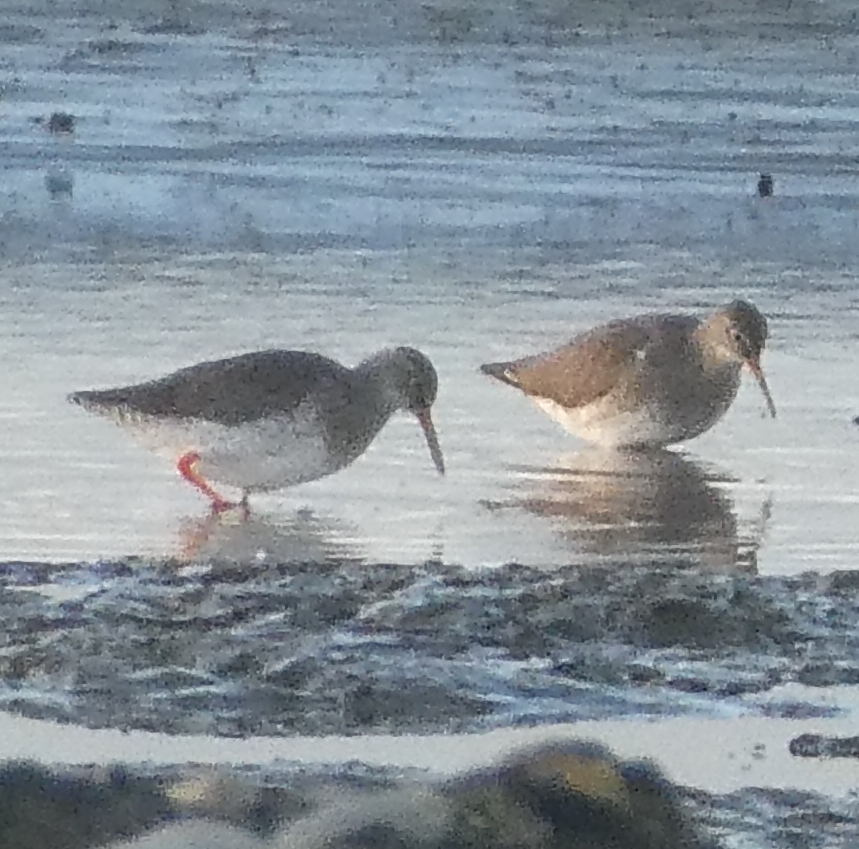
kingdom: Animalia
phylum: Chordata
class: Aves
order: Charadriiformes
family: Scolopacidae
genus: Tringa
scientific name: Tringa totanus
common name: Common redshank
